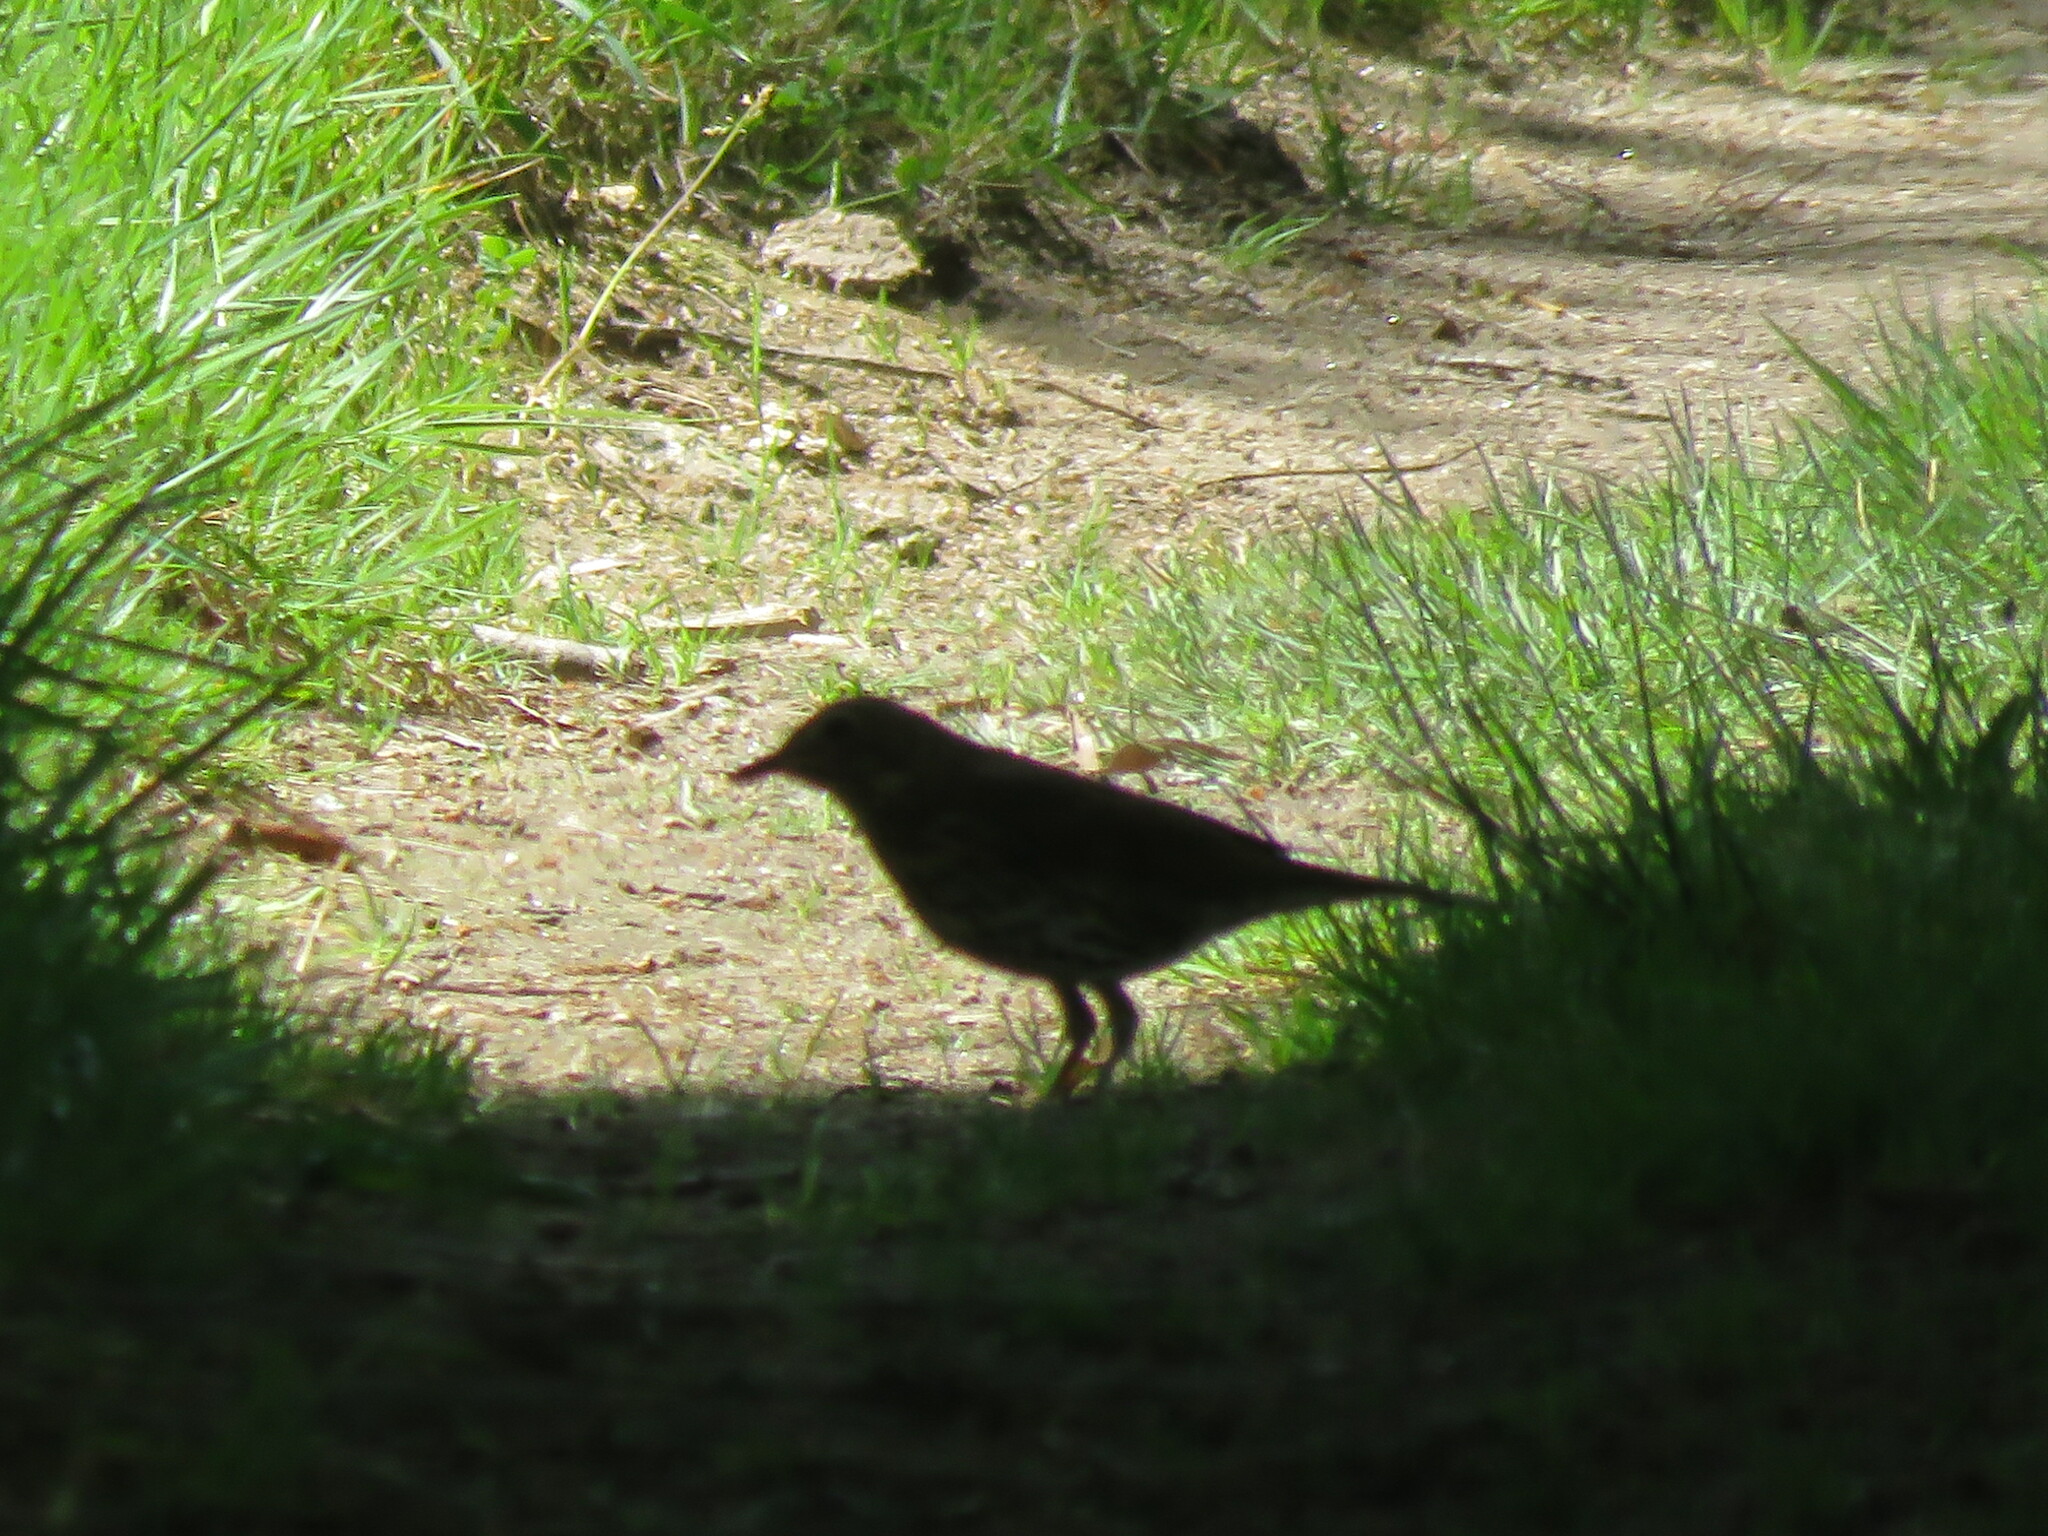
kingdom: Animalia
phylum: Chordata
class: Aves
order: Passeriformes
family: Turdidae
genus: Turdus
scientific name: Turdus philomelos
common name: Song thrush
